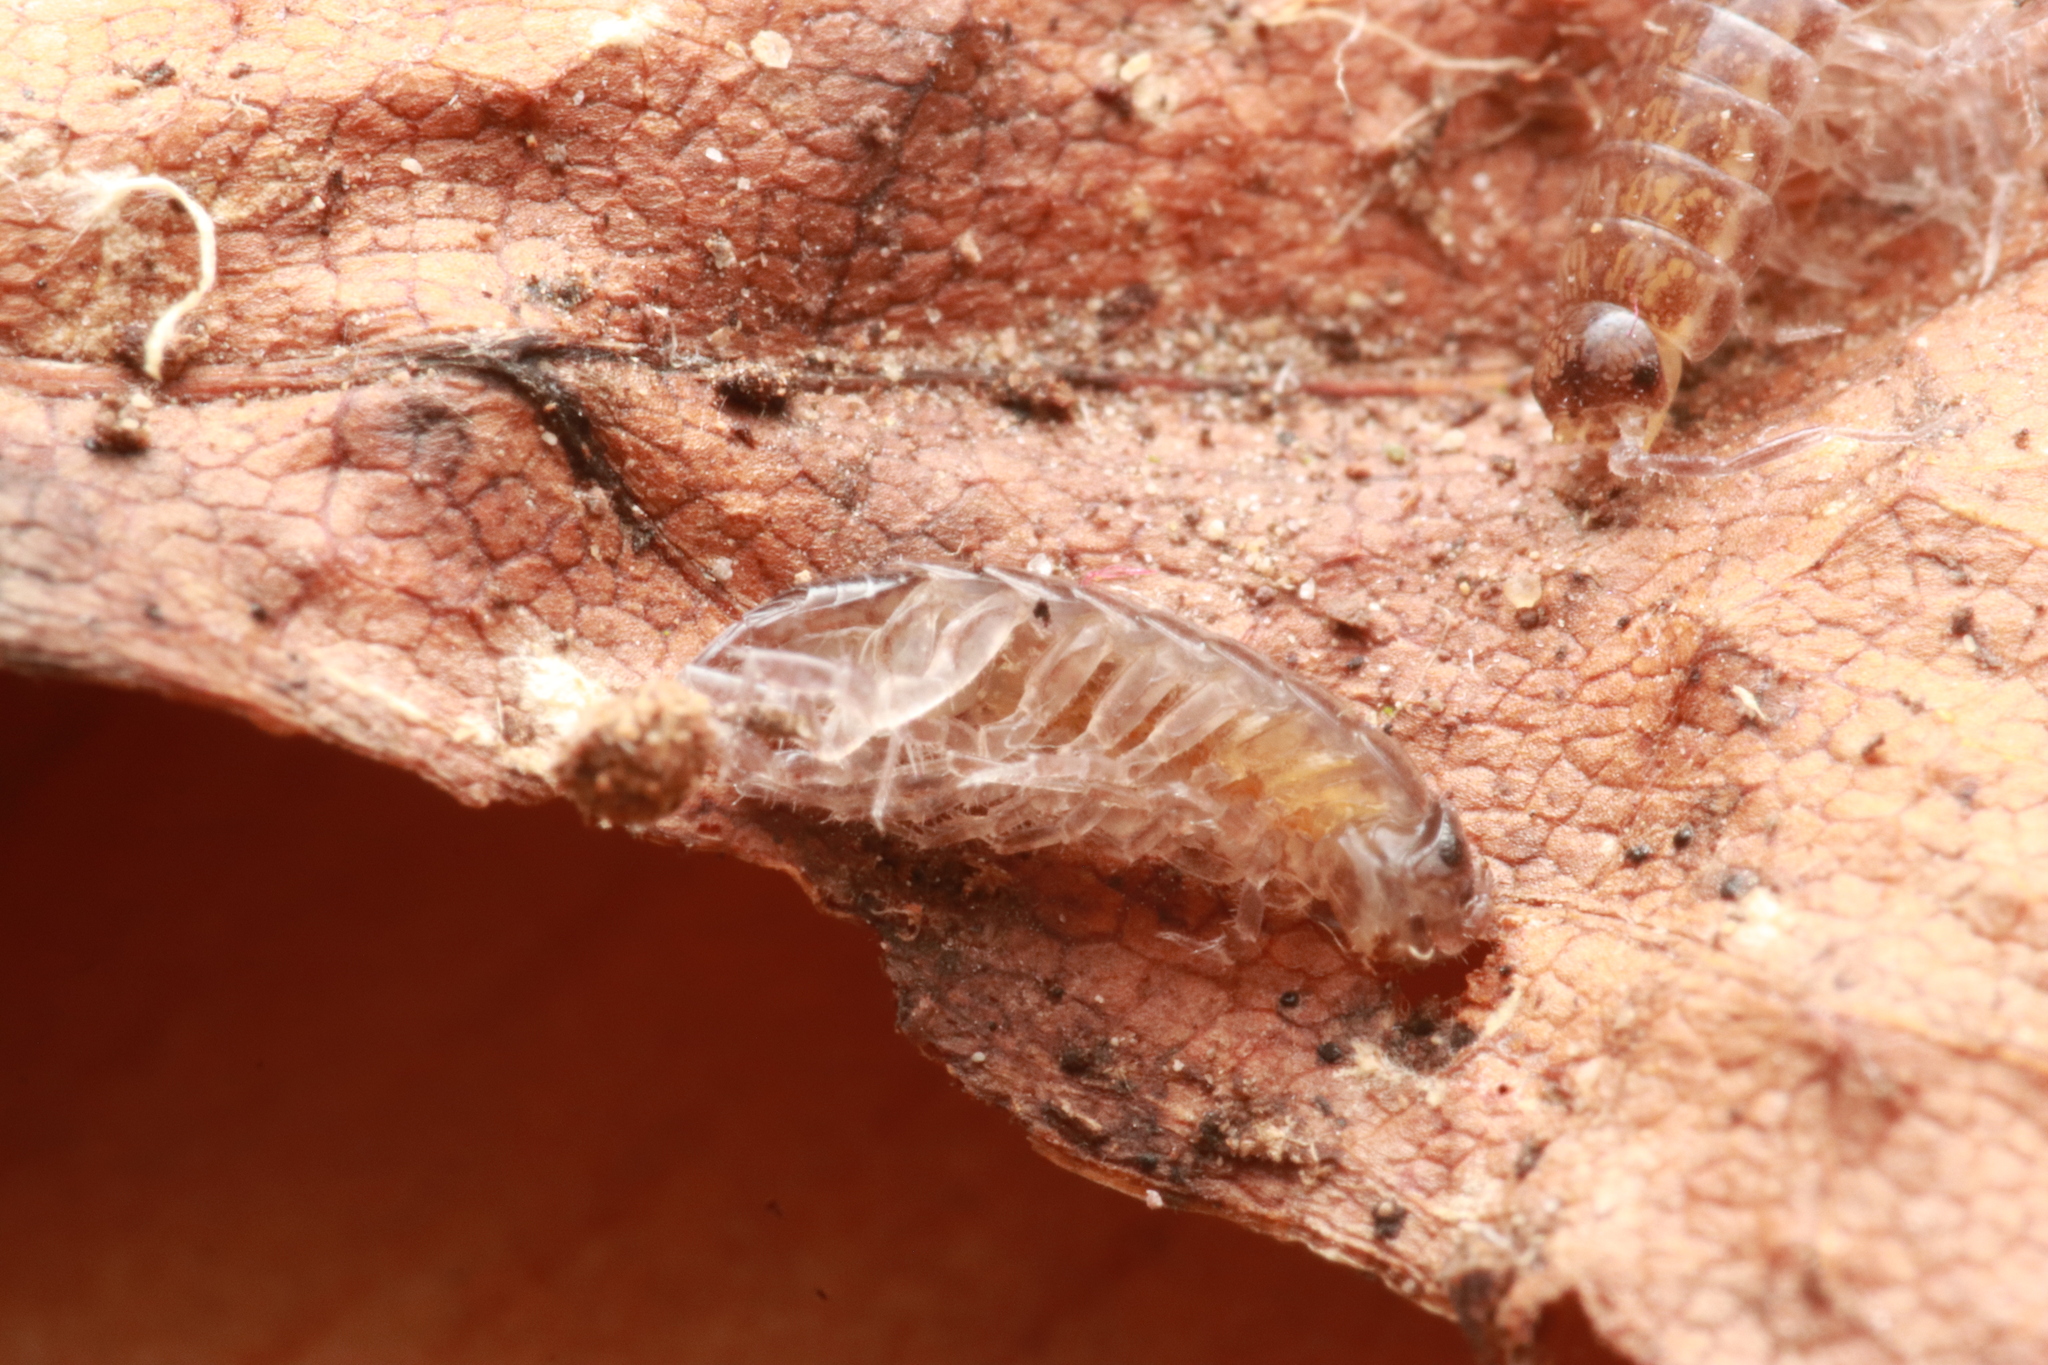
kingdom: Animalia
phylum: Arthropoda
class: Malacostraca
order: Isopoda
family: Philosciidae
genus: Chaetophiloscia
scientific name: Chaetophiloscia sicula
